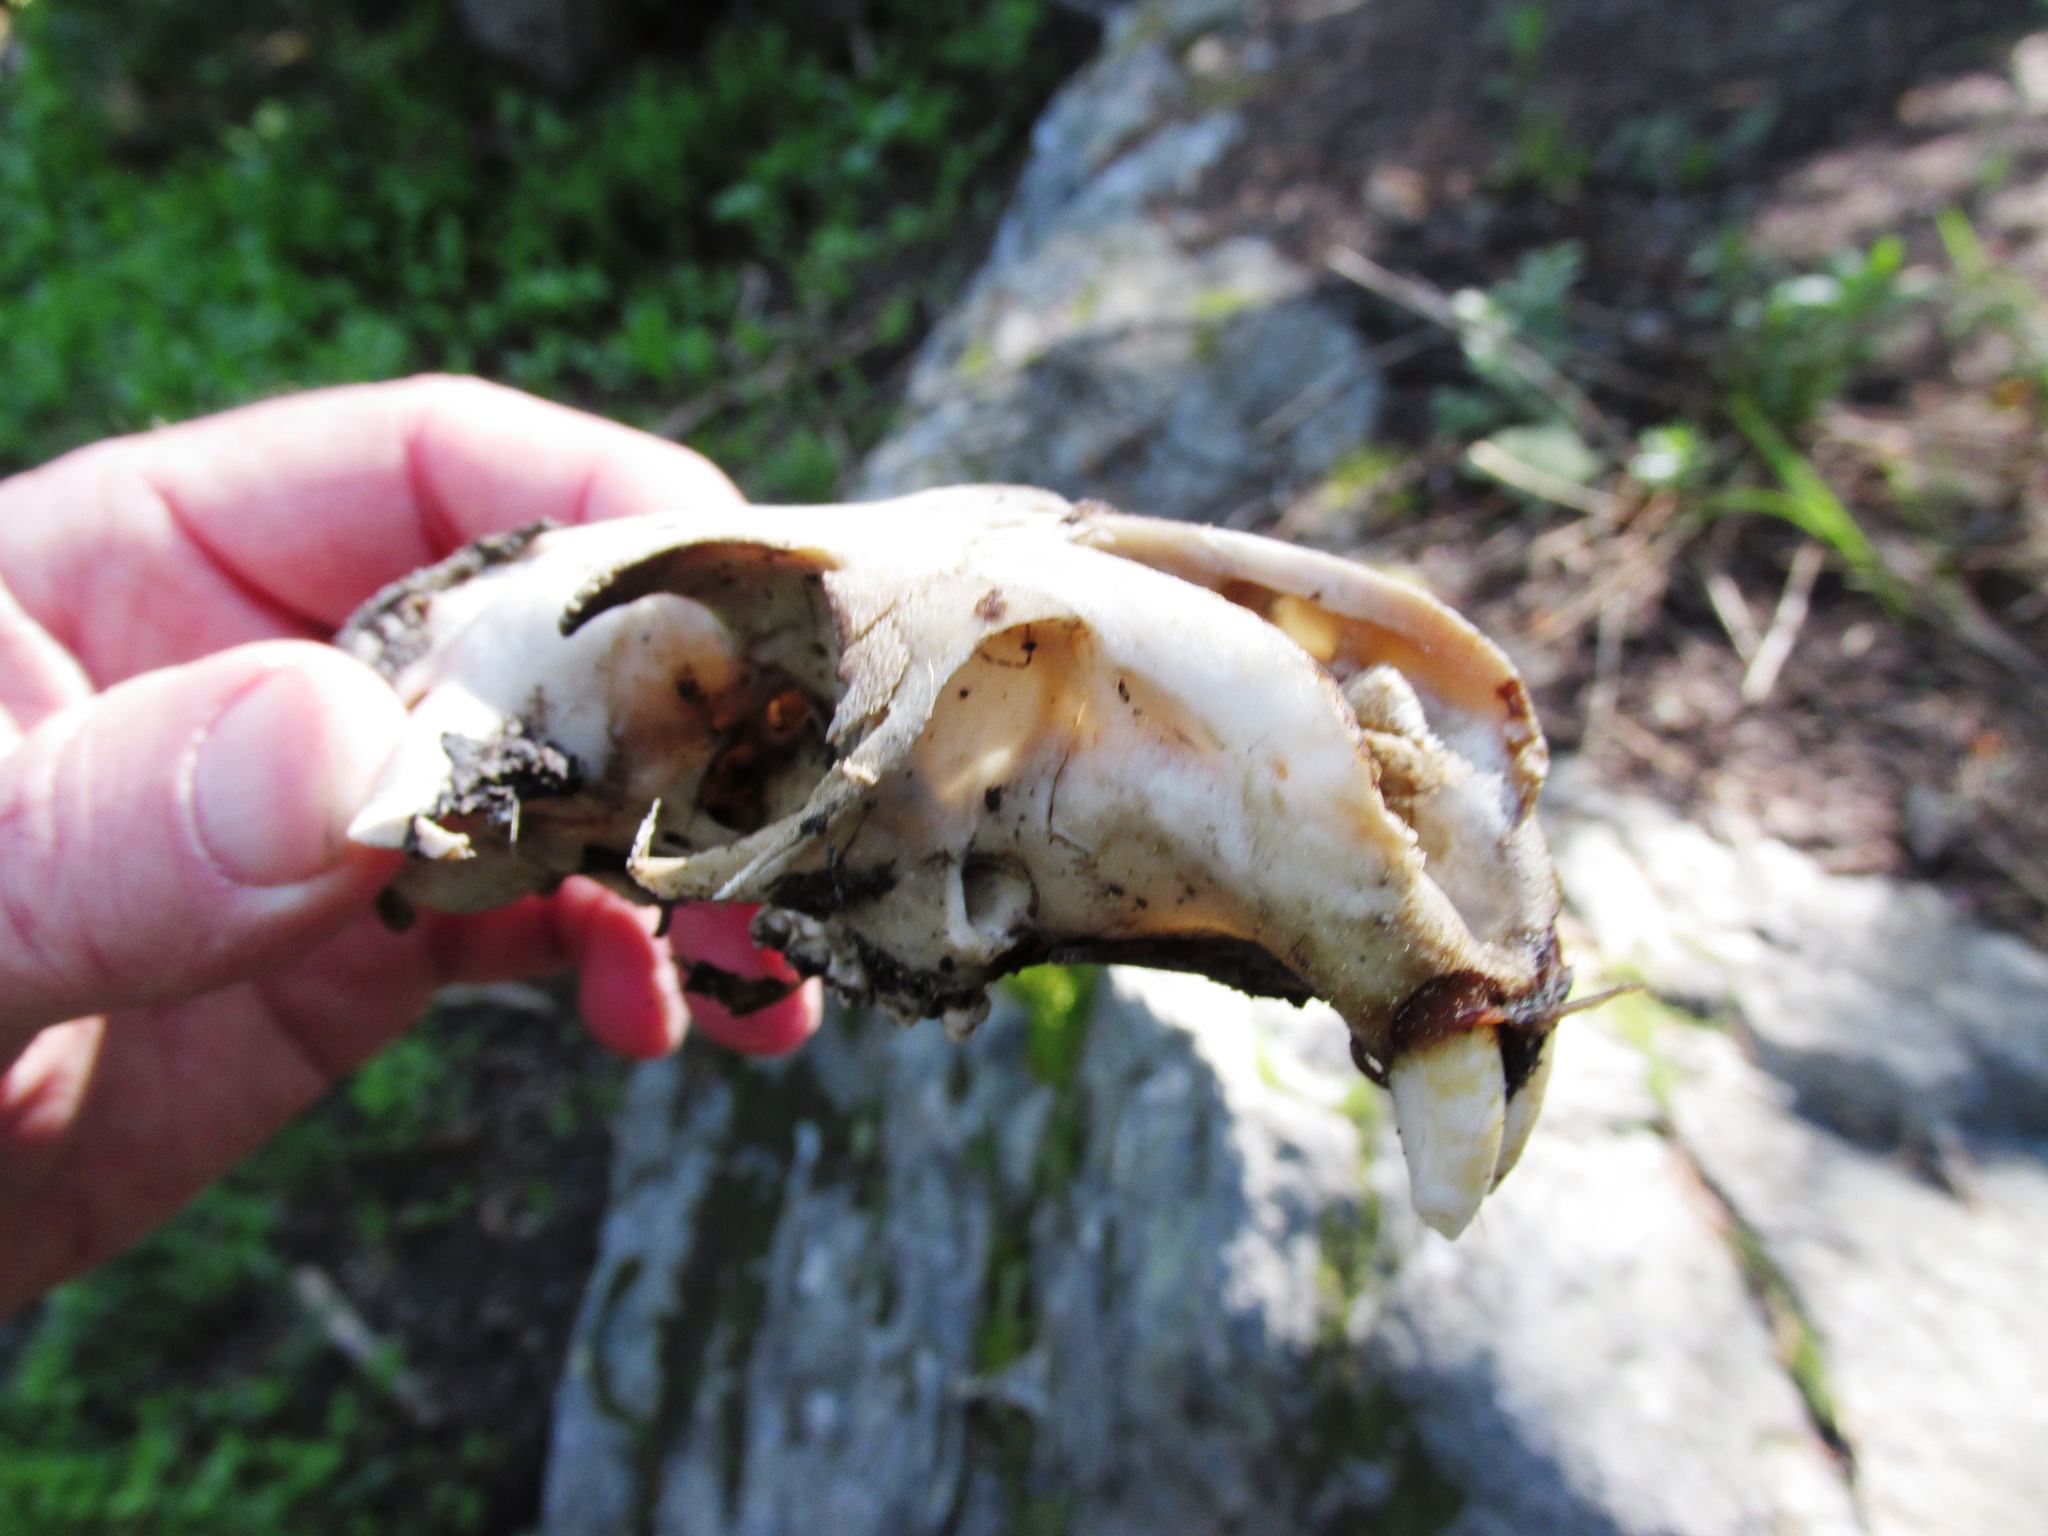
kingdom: Animalia
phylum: Chordata
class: Mammalia
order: Rodentia
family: Sciuridae
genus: Marmota
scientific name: Marmota flaviventris
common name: Yellow-bellied marmot
